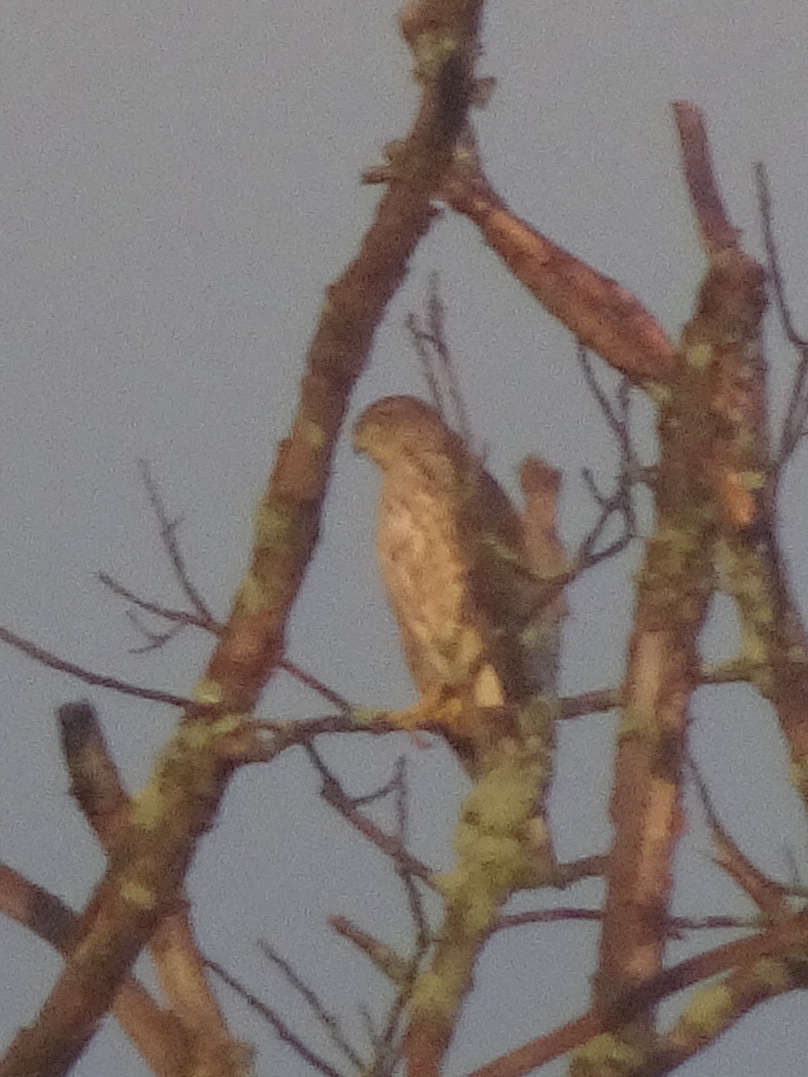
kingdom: Animalia
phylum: Chordata
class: Aves
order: Accipitriformes
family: Accipitridae
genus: Accipiter
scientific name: Accipiter striatus
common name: Sharp-shinned hawk
